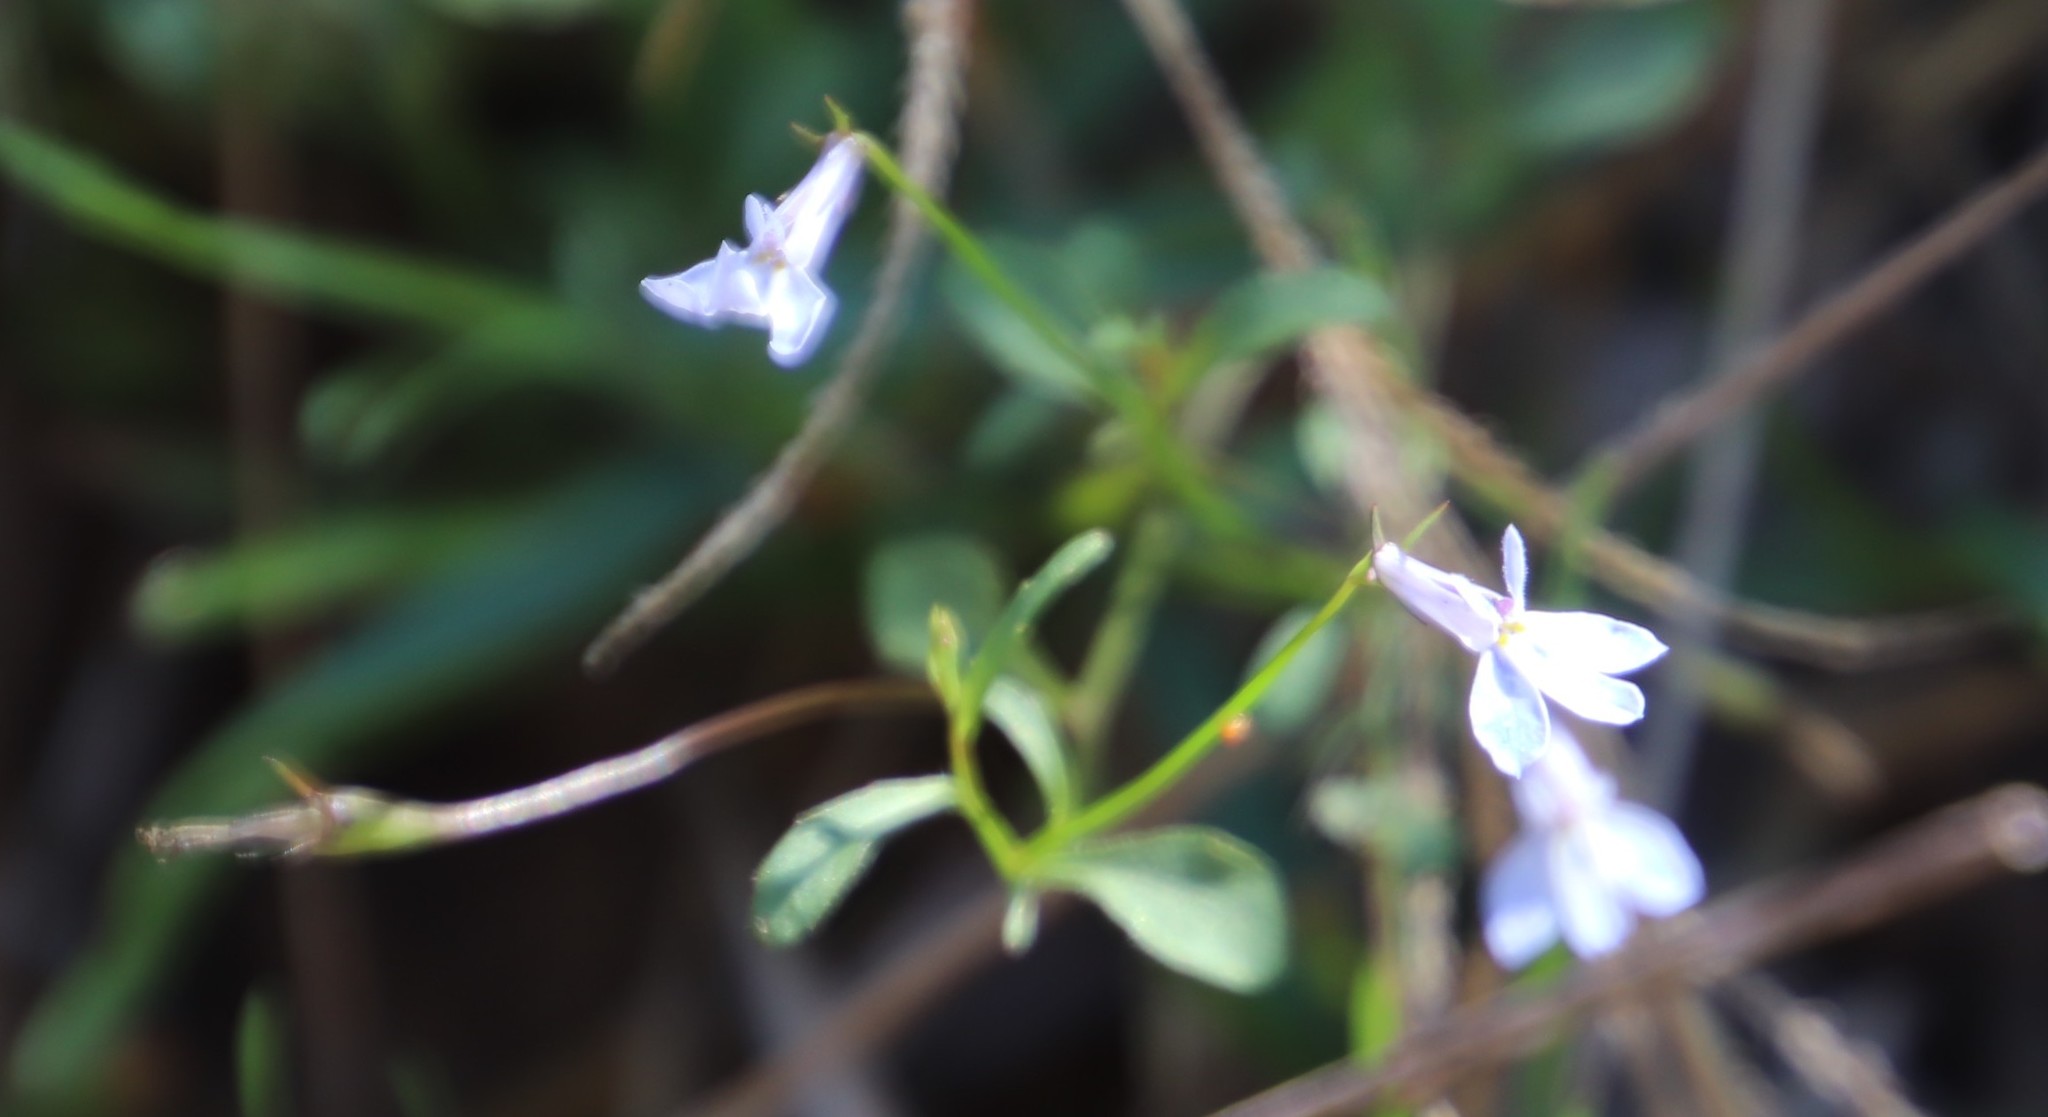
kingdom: Plantae
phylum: Tracheophyta
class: Magnoliopsida
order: Asterales
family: Campanulaceae
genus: Lobelia
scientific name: Lobelia erinus
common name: Edging lobelia
